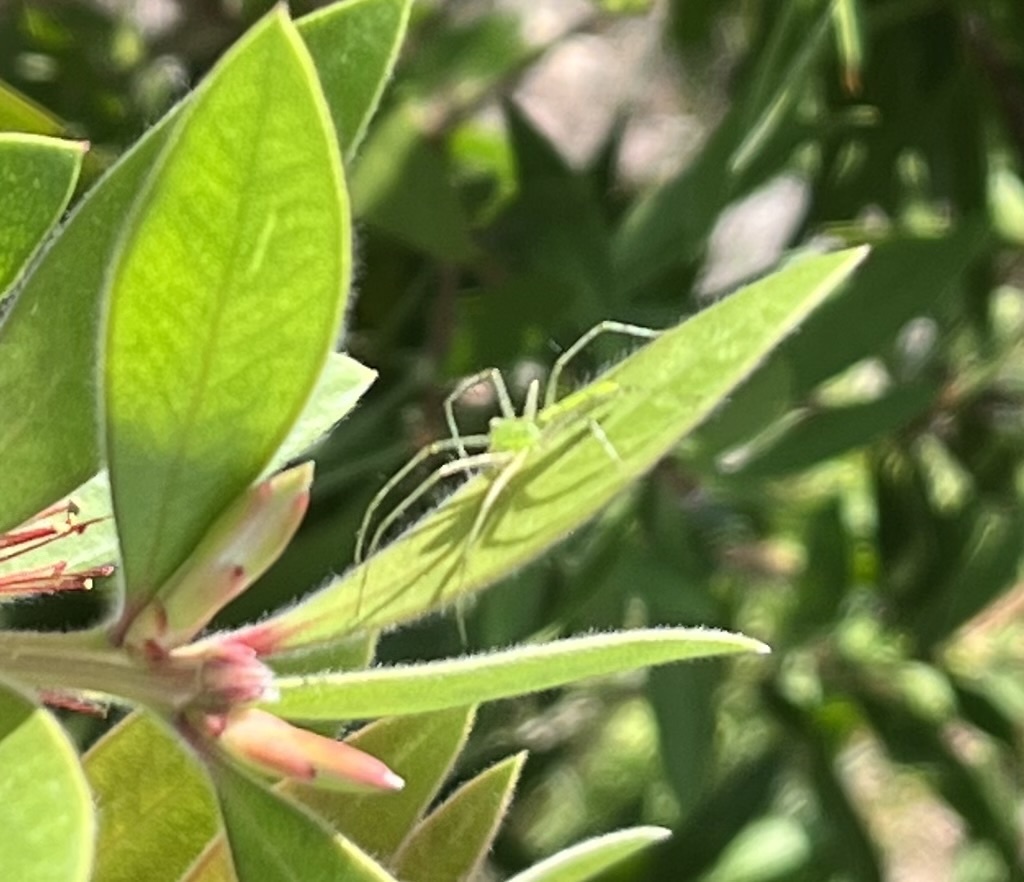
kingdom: Animalia
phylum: Arthropoda
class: Arachnida
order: Araneae
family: Oxyopidae
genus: Peucetia
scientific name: Peucetia viridans
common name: Lynx spiders
